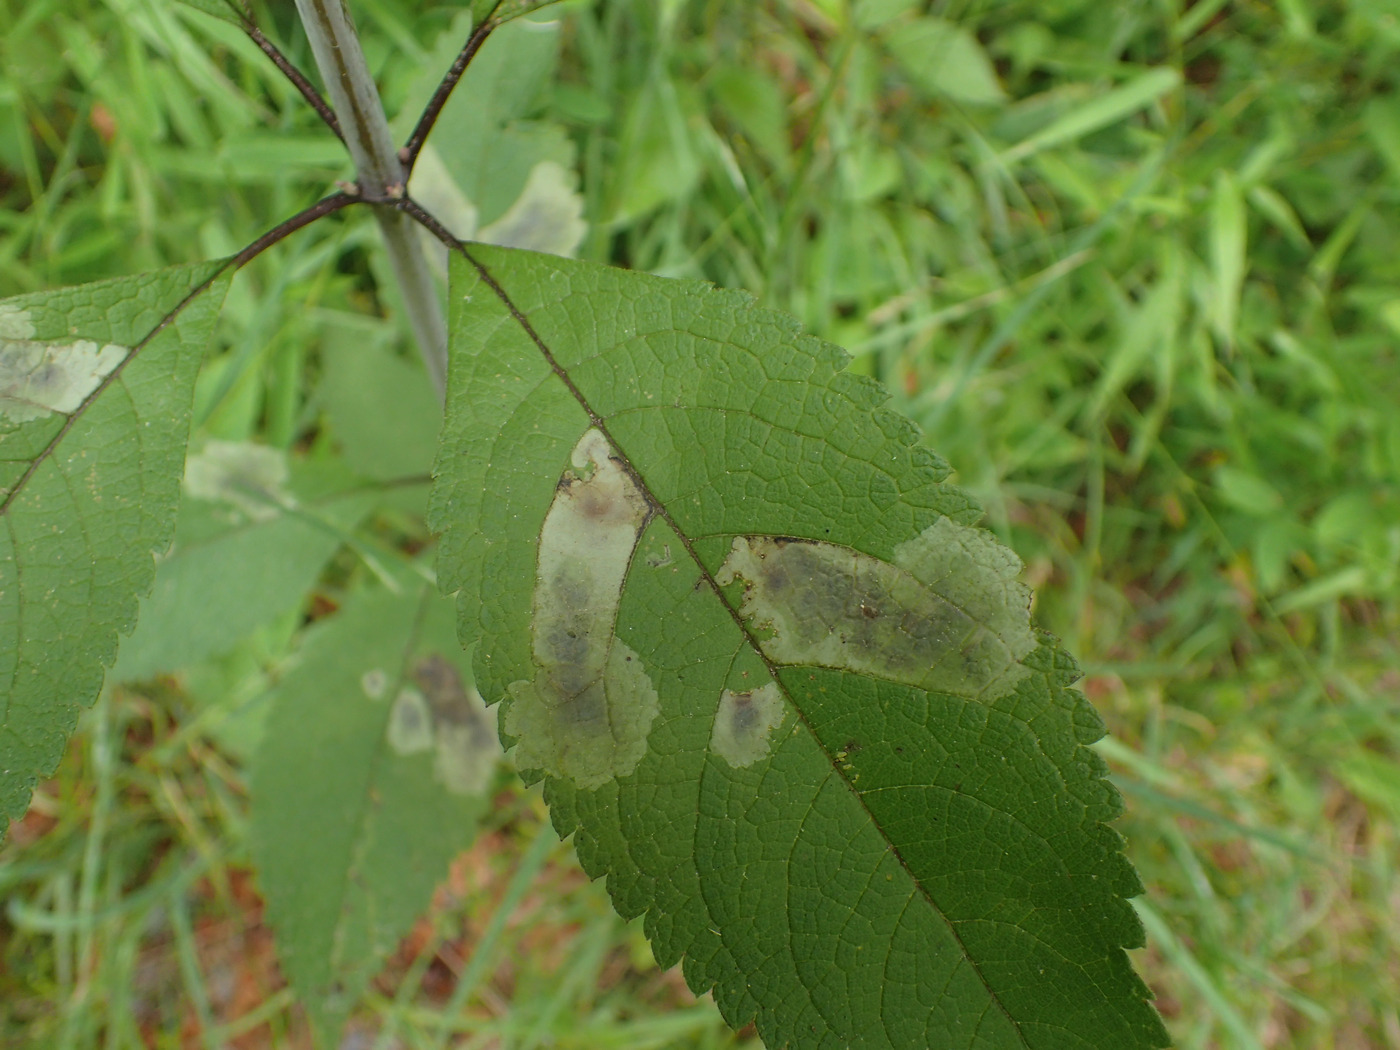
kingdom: Animalia
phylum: Arthropoda
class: Insecta
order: Diptera
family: Agromyzidae
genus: Calycomyza
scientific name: Calycomyza flavinotum
